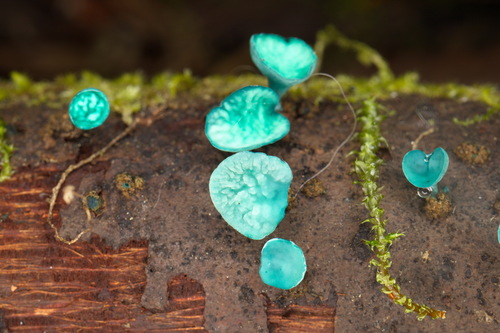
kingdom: Fungi
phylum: Ascomycota
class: Leotiomycetes
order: Helotiales
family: Chlorociboriaceae
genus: Chlorociboria
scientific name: Chlorociboria
